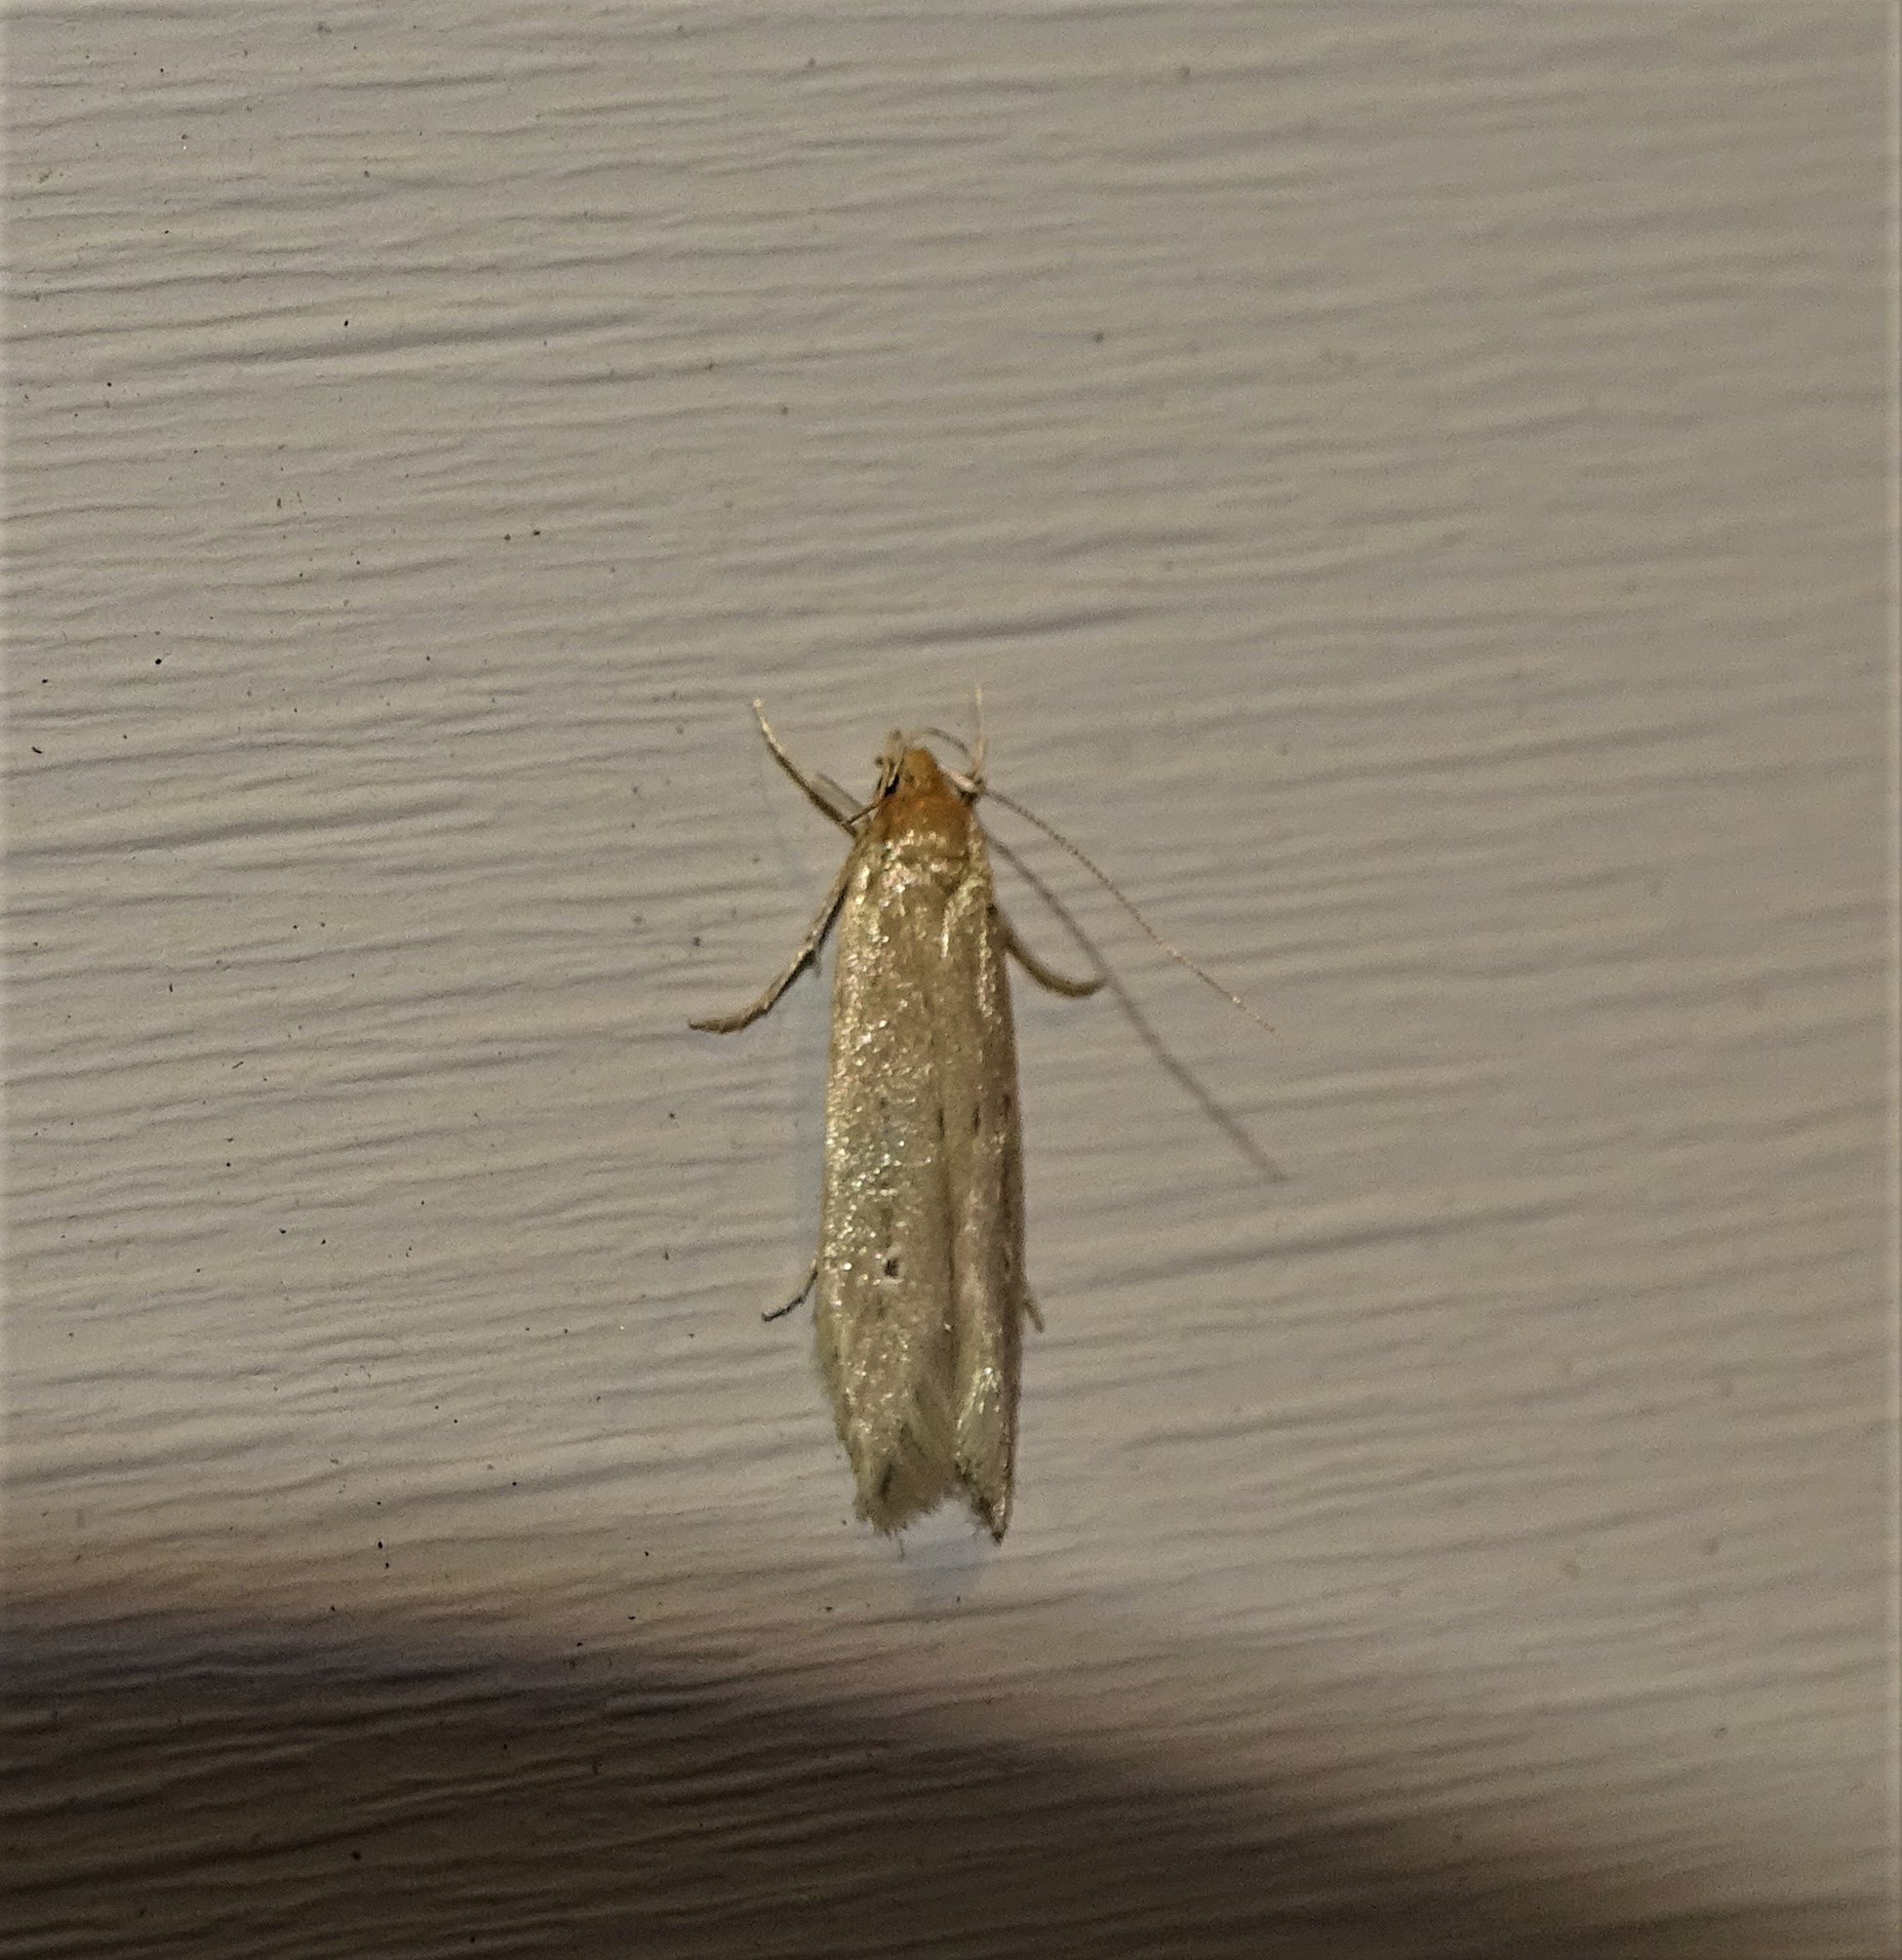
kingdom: Animalia
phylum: Arthropoda
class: Insecta
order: Lepidoptera
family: Cosmopterigidae
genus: Limnaecia
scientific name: Limnaecia phragmitella
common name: Bulrush cosmet
